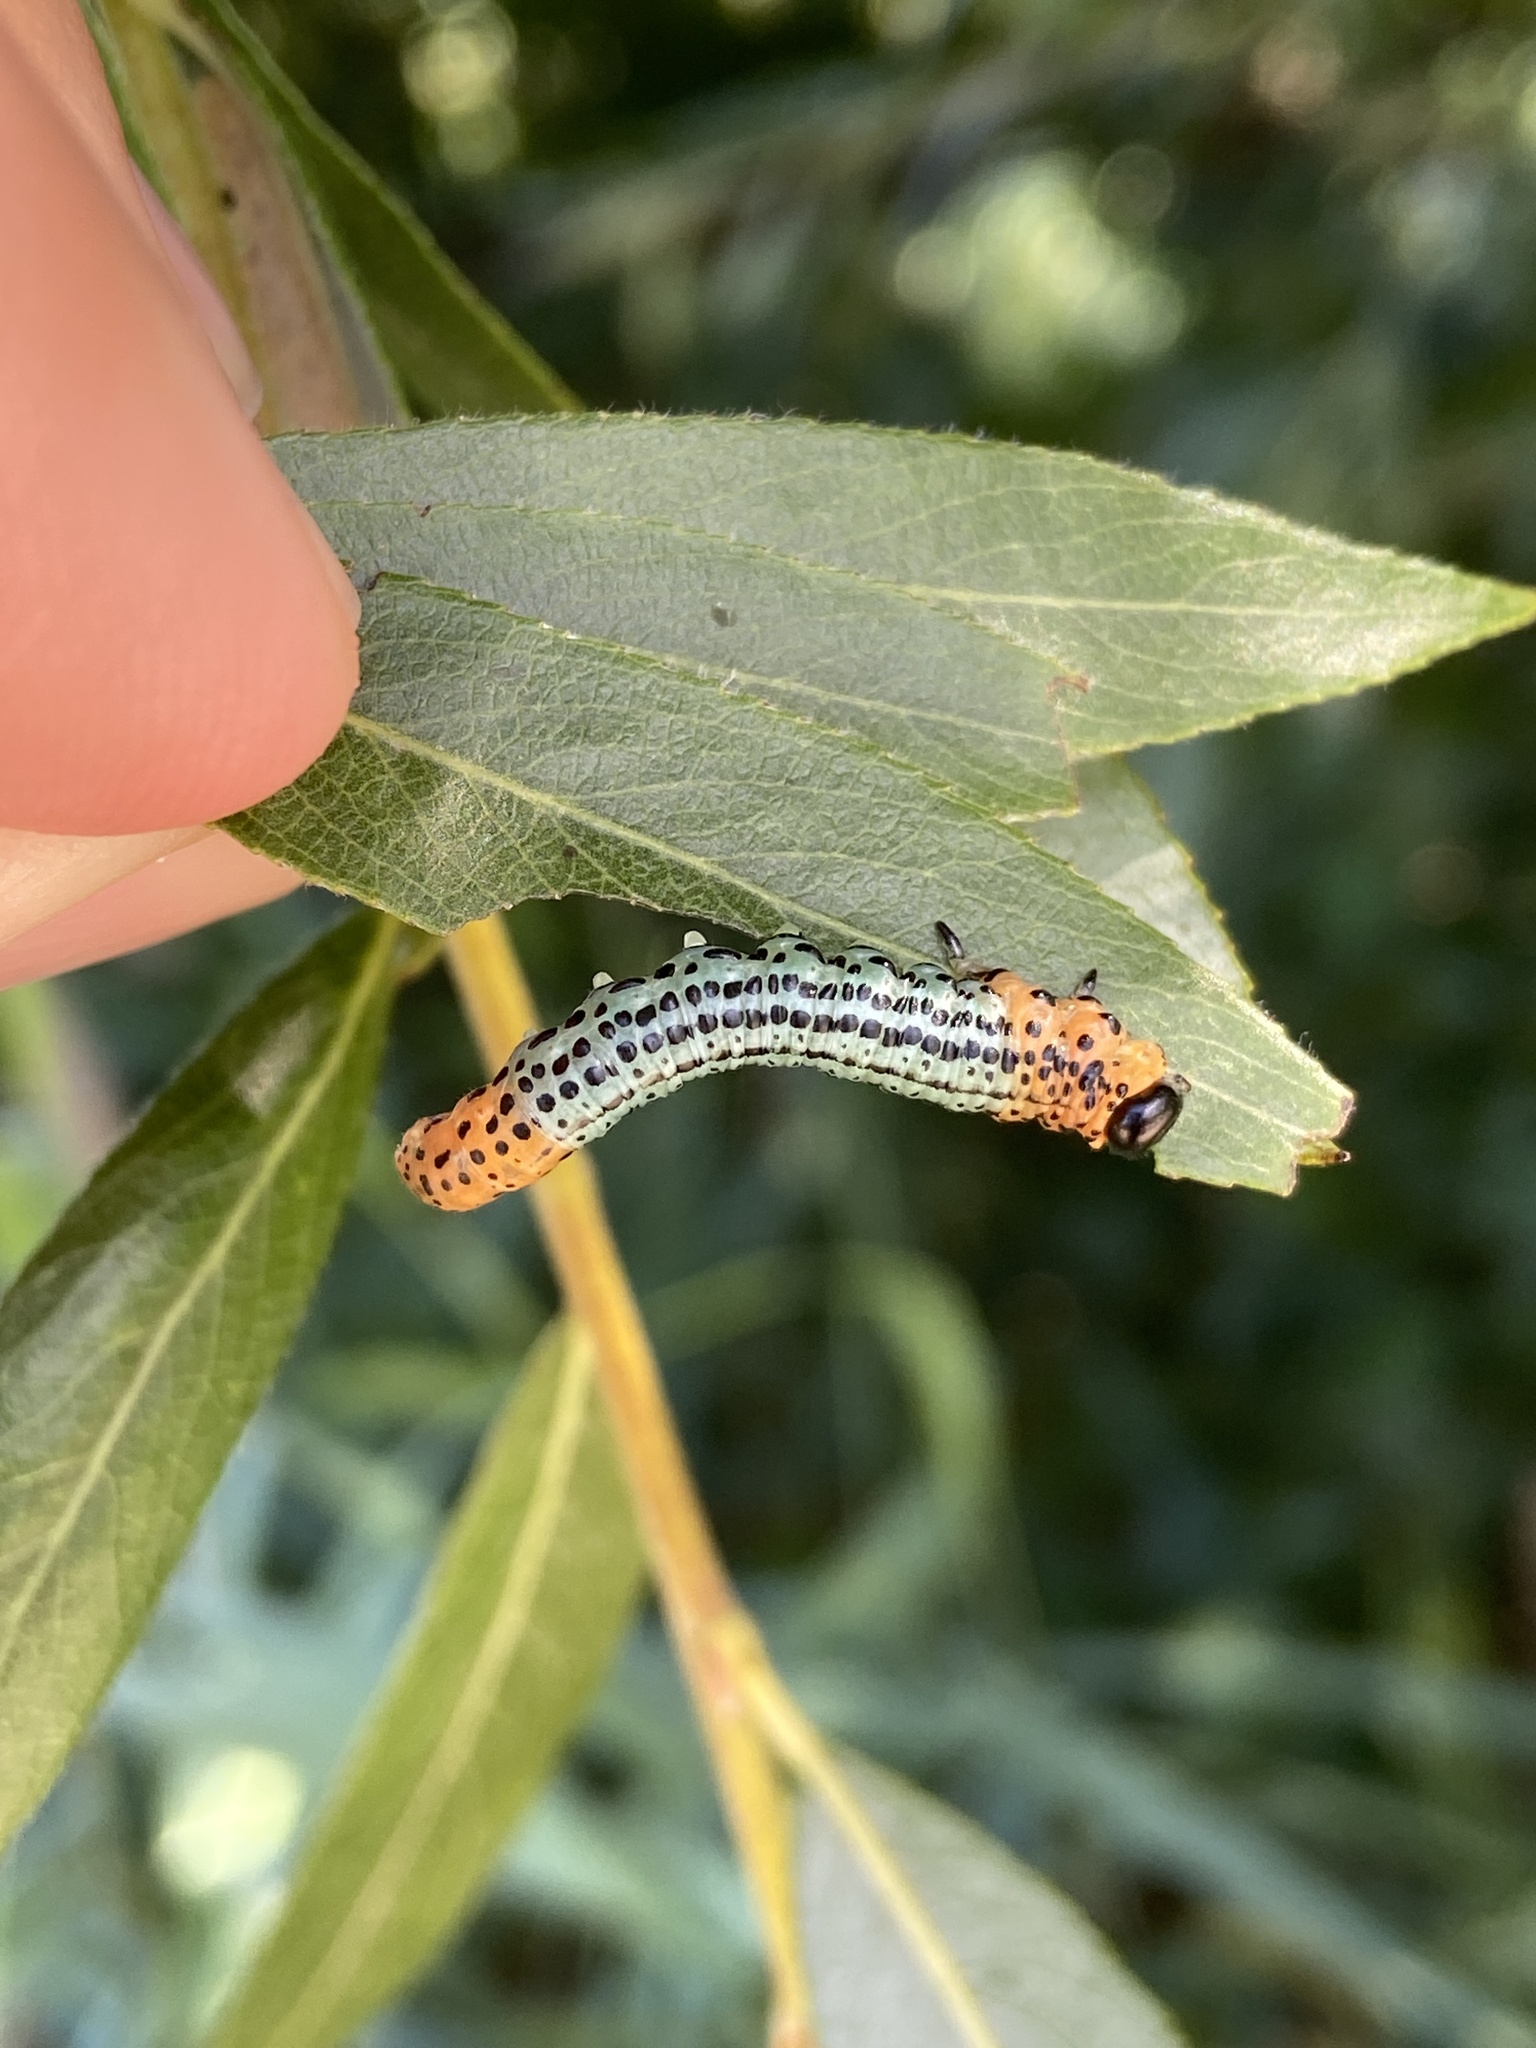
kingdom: Animalia
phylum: Arthropoda
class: Insecta
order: Hymenoptera
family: Tenthredinidae
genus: Nematus
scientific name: Nematus salicis
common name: Willow sawfly
